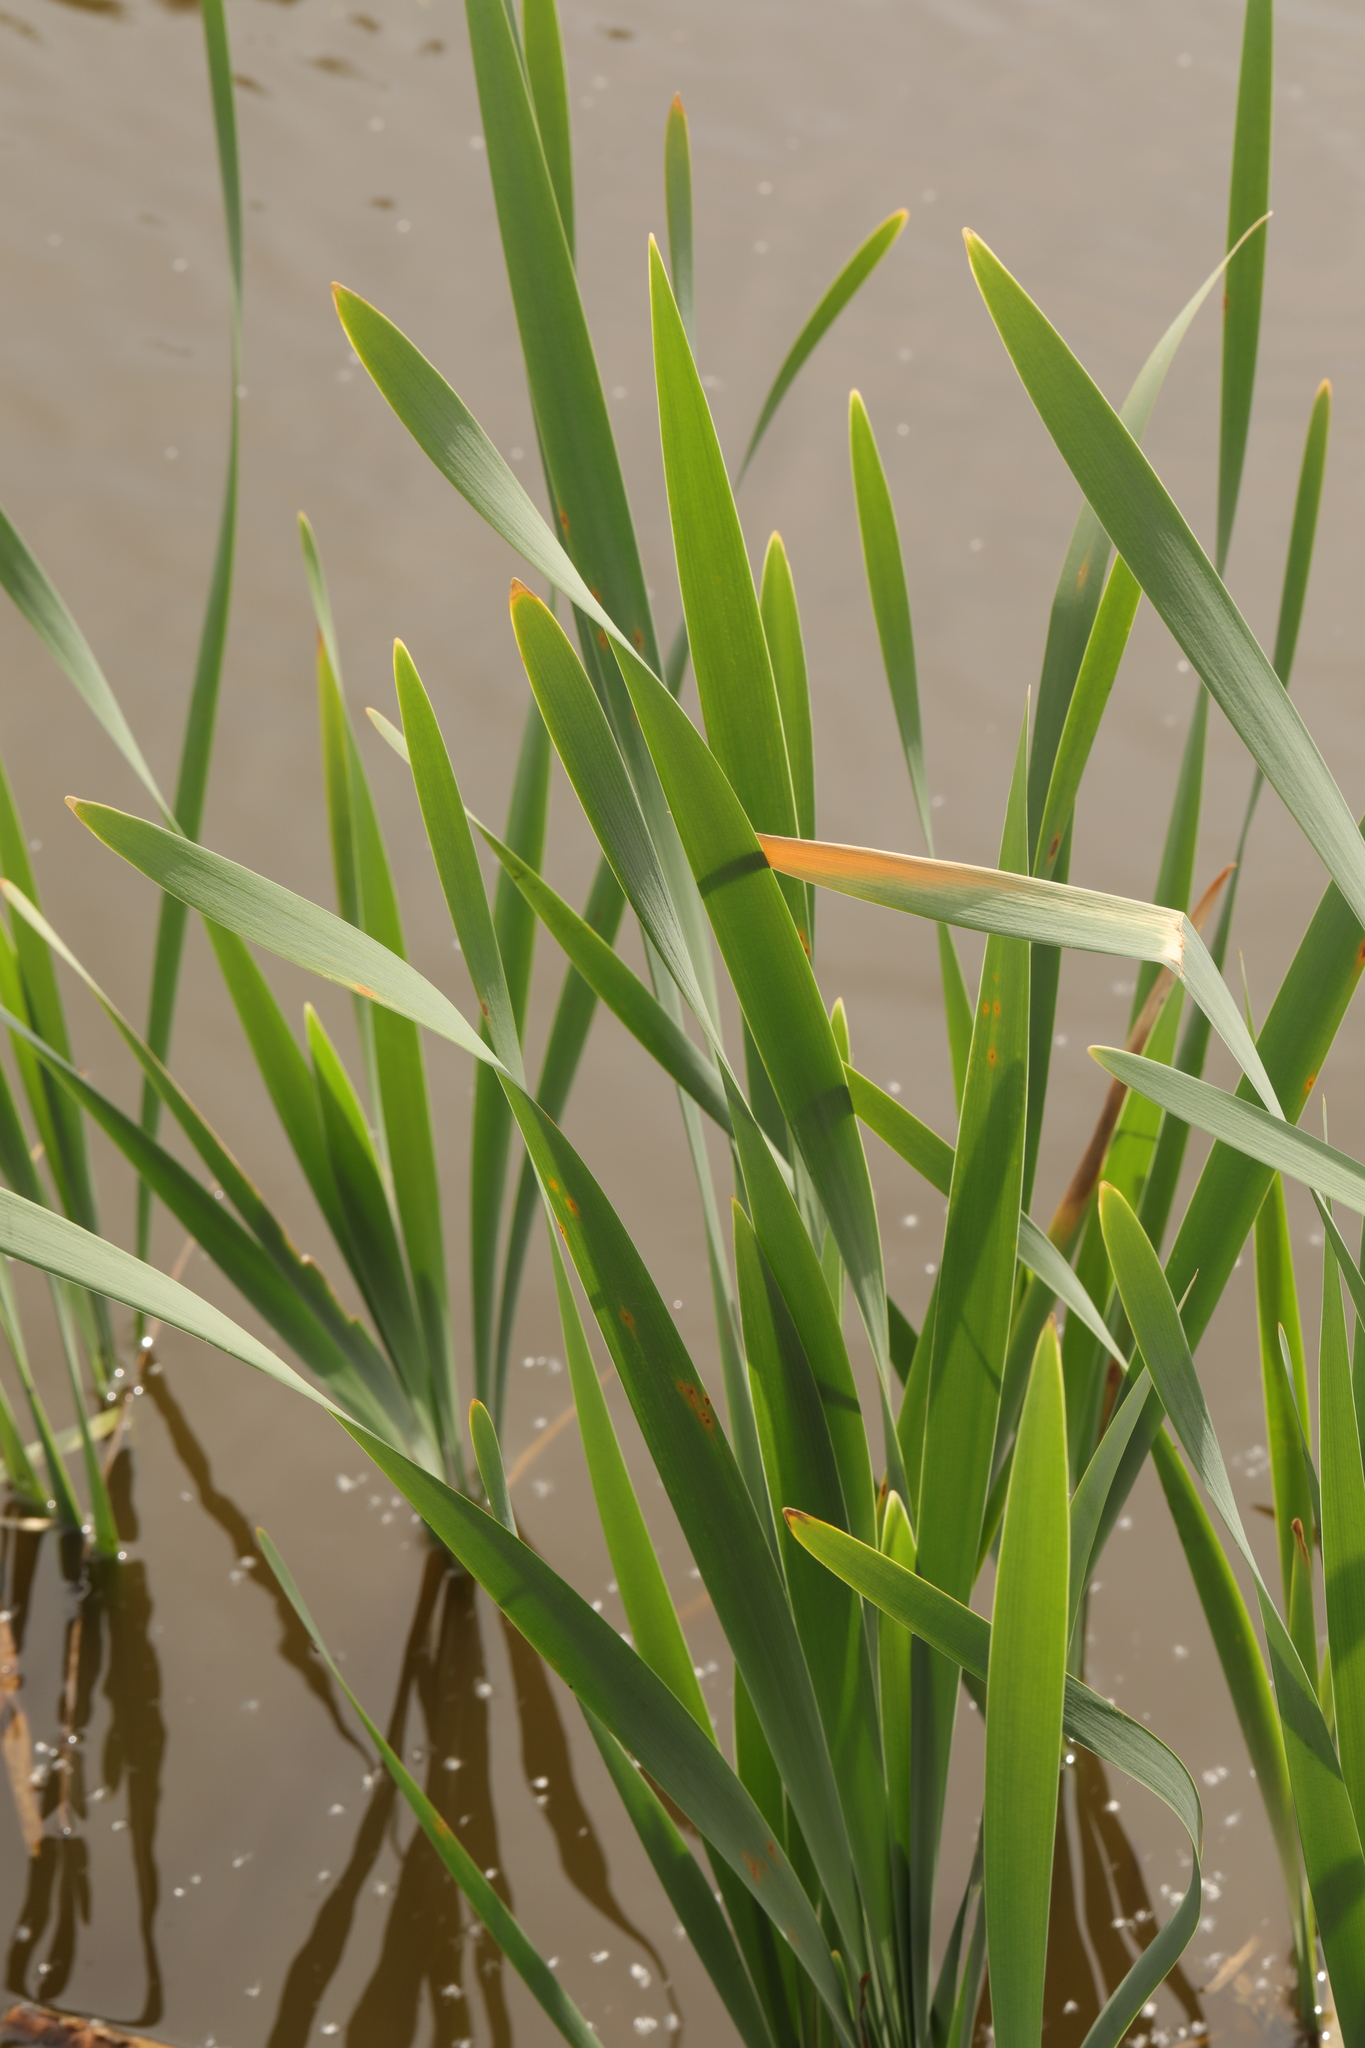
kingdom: Plantae
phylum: Tracheophyta
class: Liliopsida
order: Poales
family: Typhaceae
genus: Typha
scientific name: Typha latifolia
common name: Broadleaf cattail
